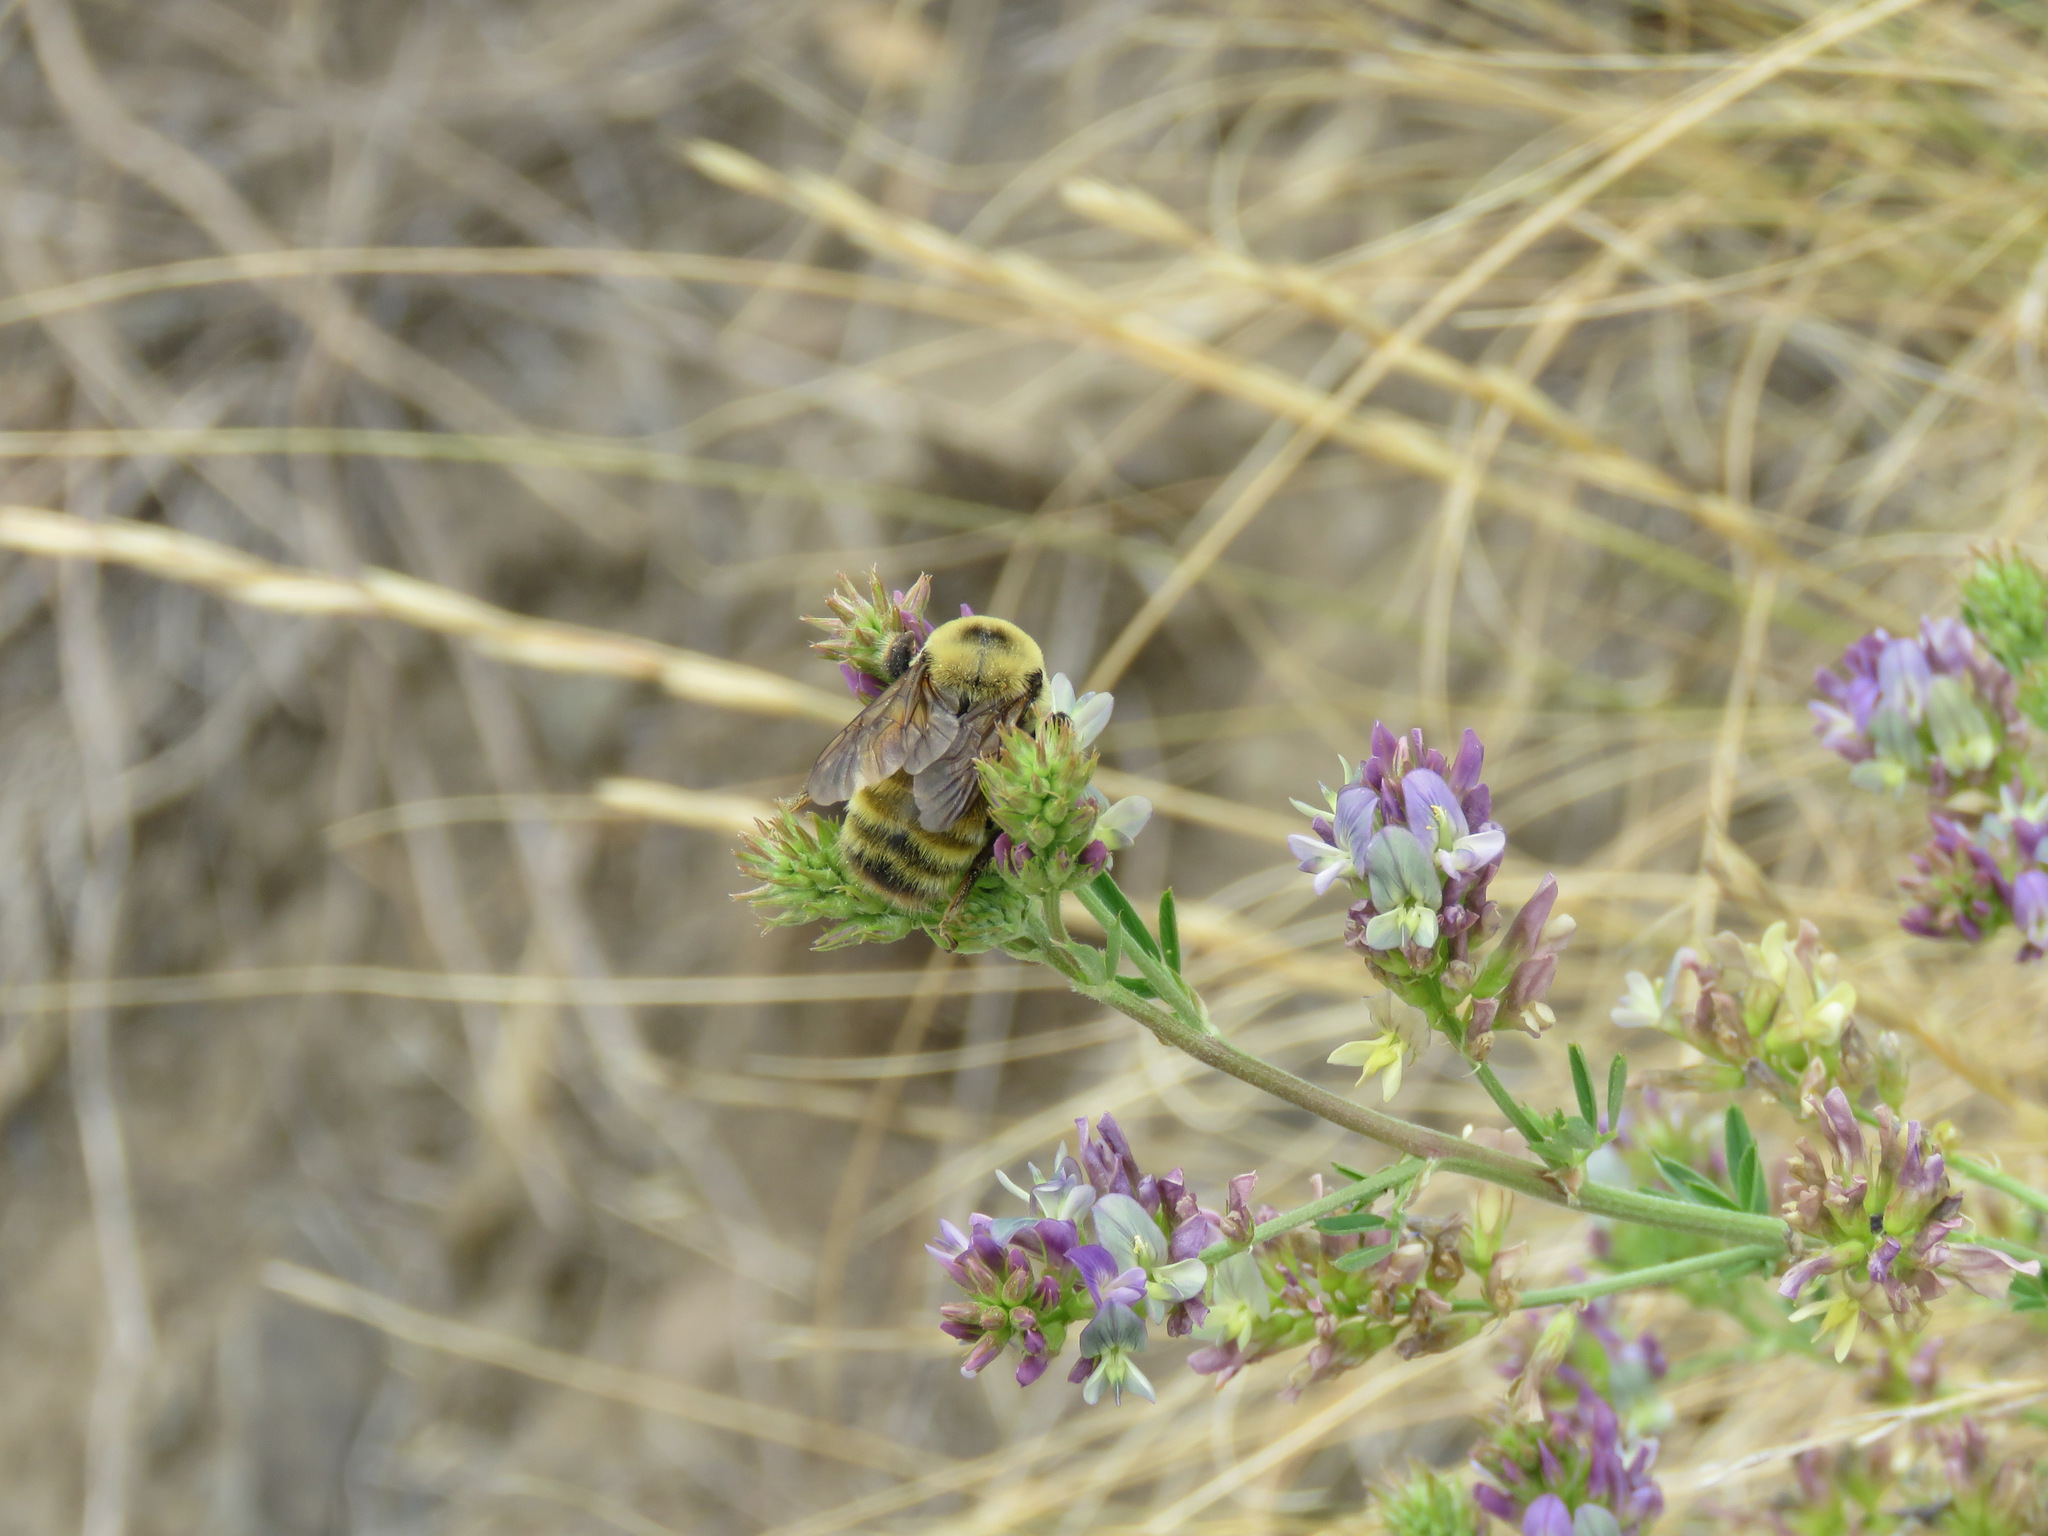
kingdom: Animalia
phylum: Arthropoda
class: Insecta
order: Hymenoptera
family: Apidae
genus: Bombus
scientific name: Bombus nevadensis
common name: Nevada bumble bee
